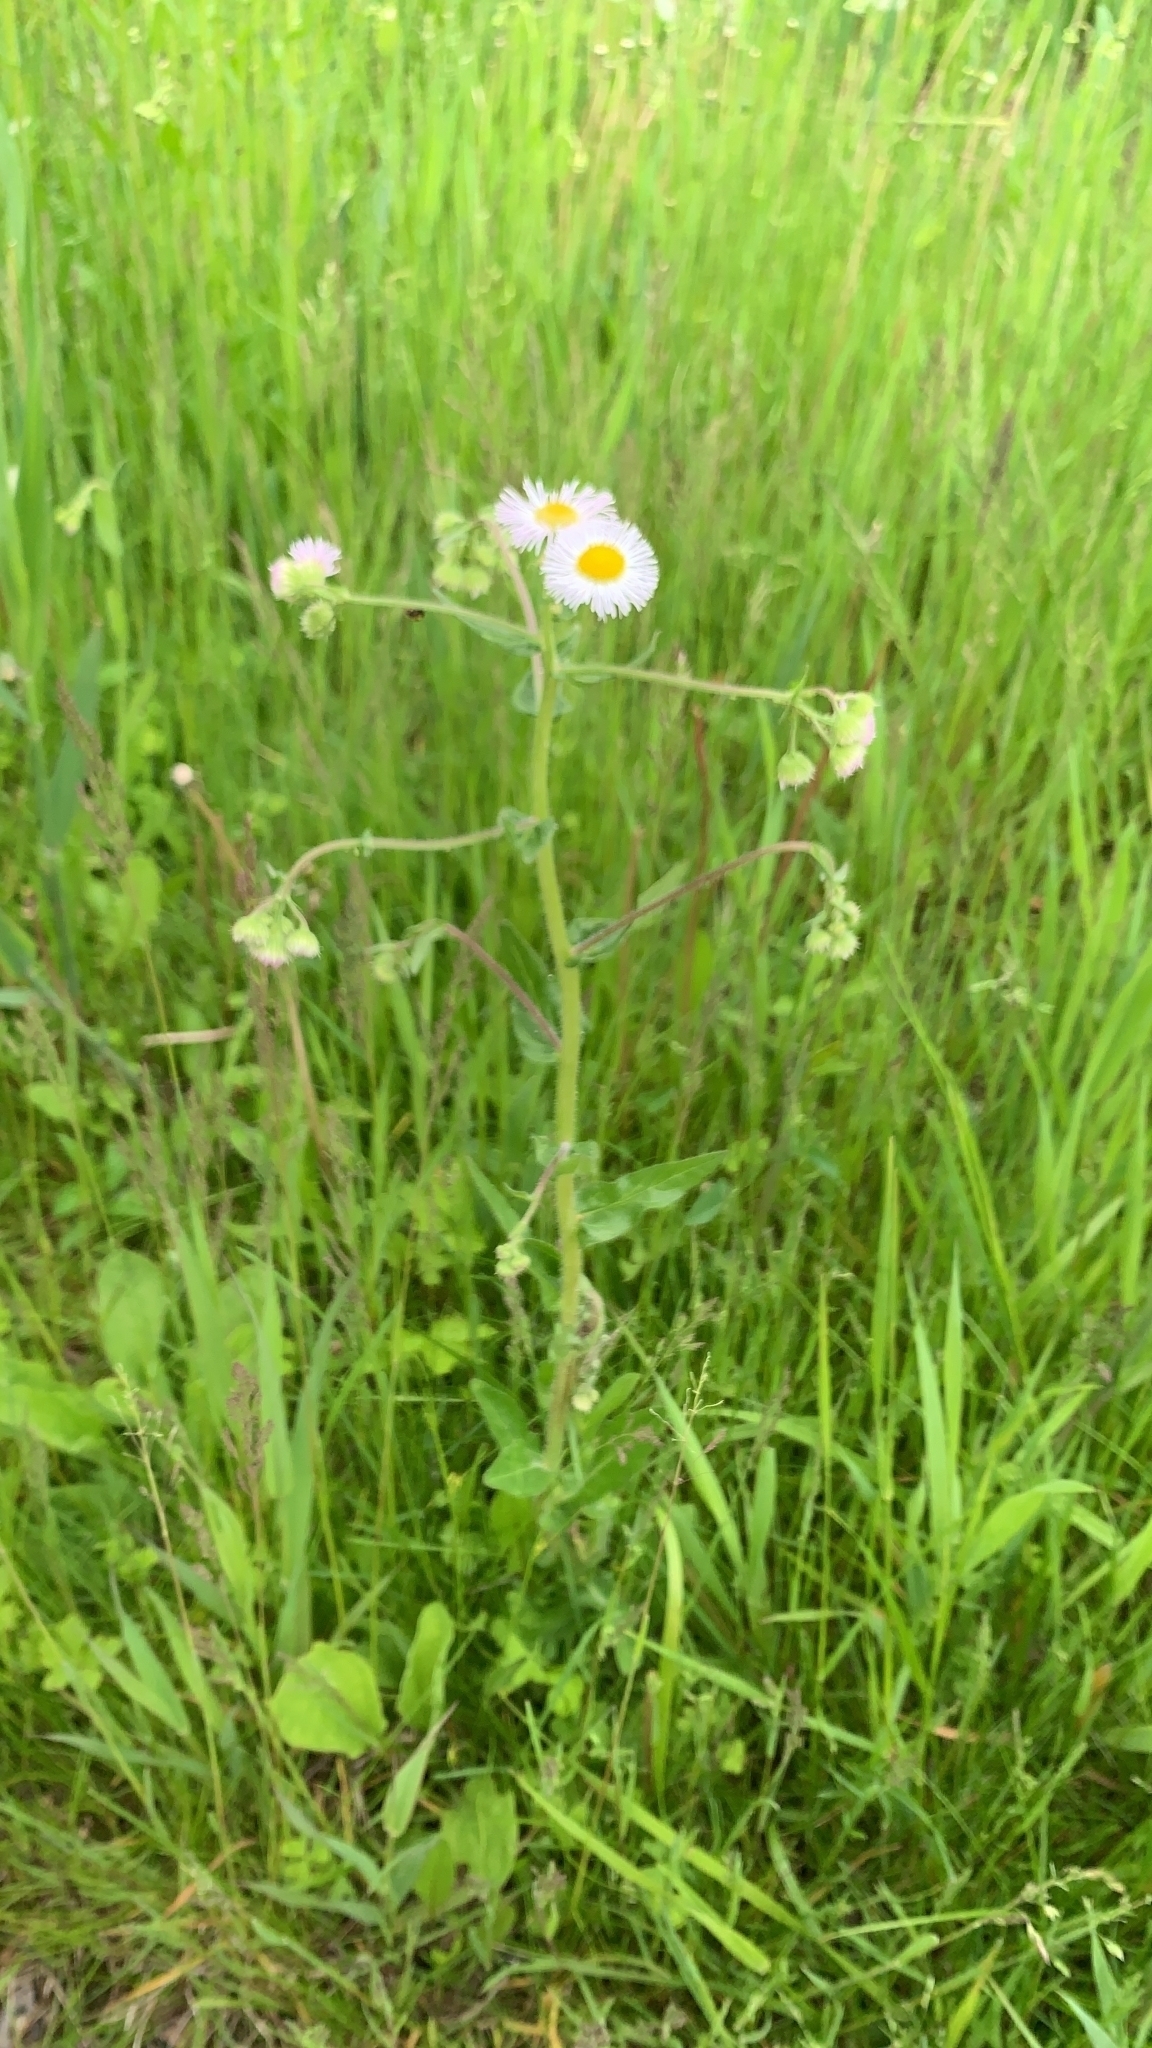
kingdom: Plantae
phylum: Tracheophyta
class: Magnoliopsida
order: Asterales
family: Asteraceae
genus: Erigeron
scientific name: Erigeron philadelphicus
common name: Robin's-plantain
